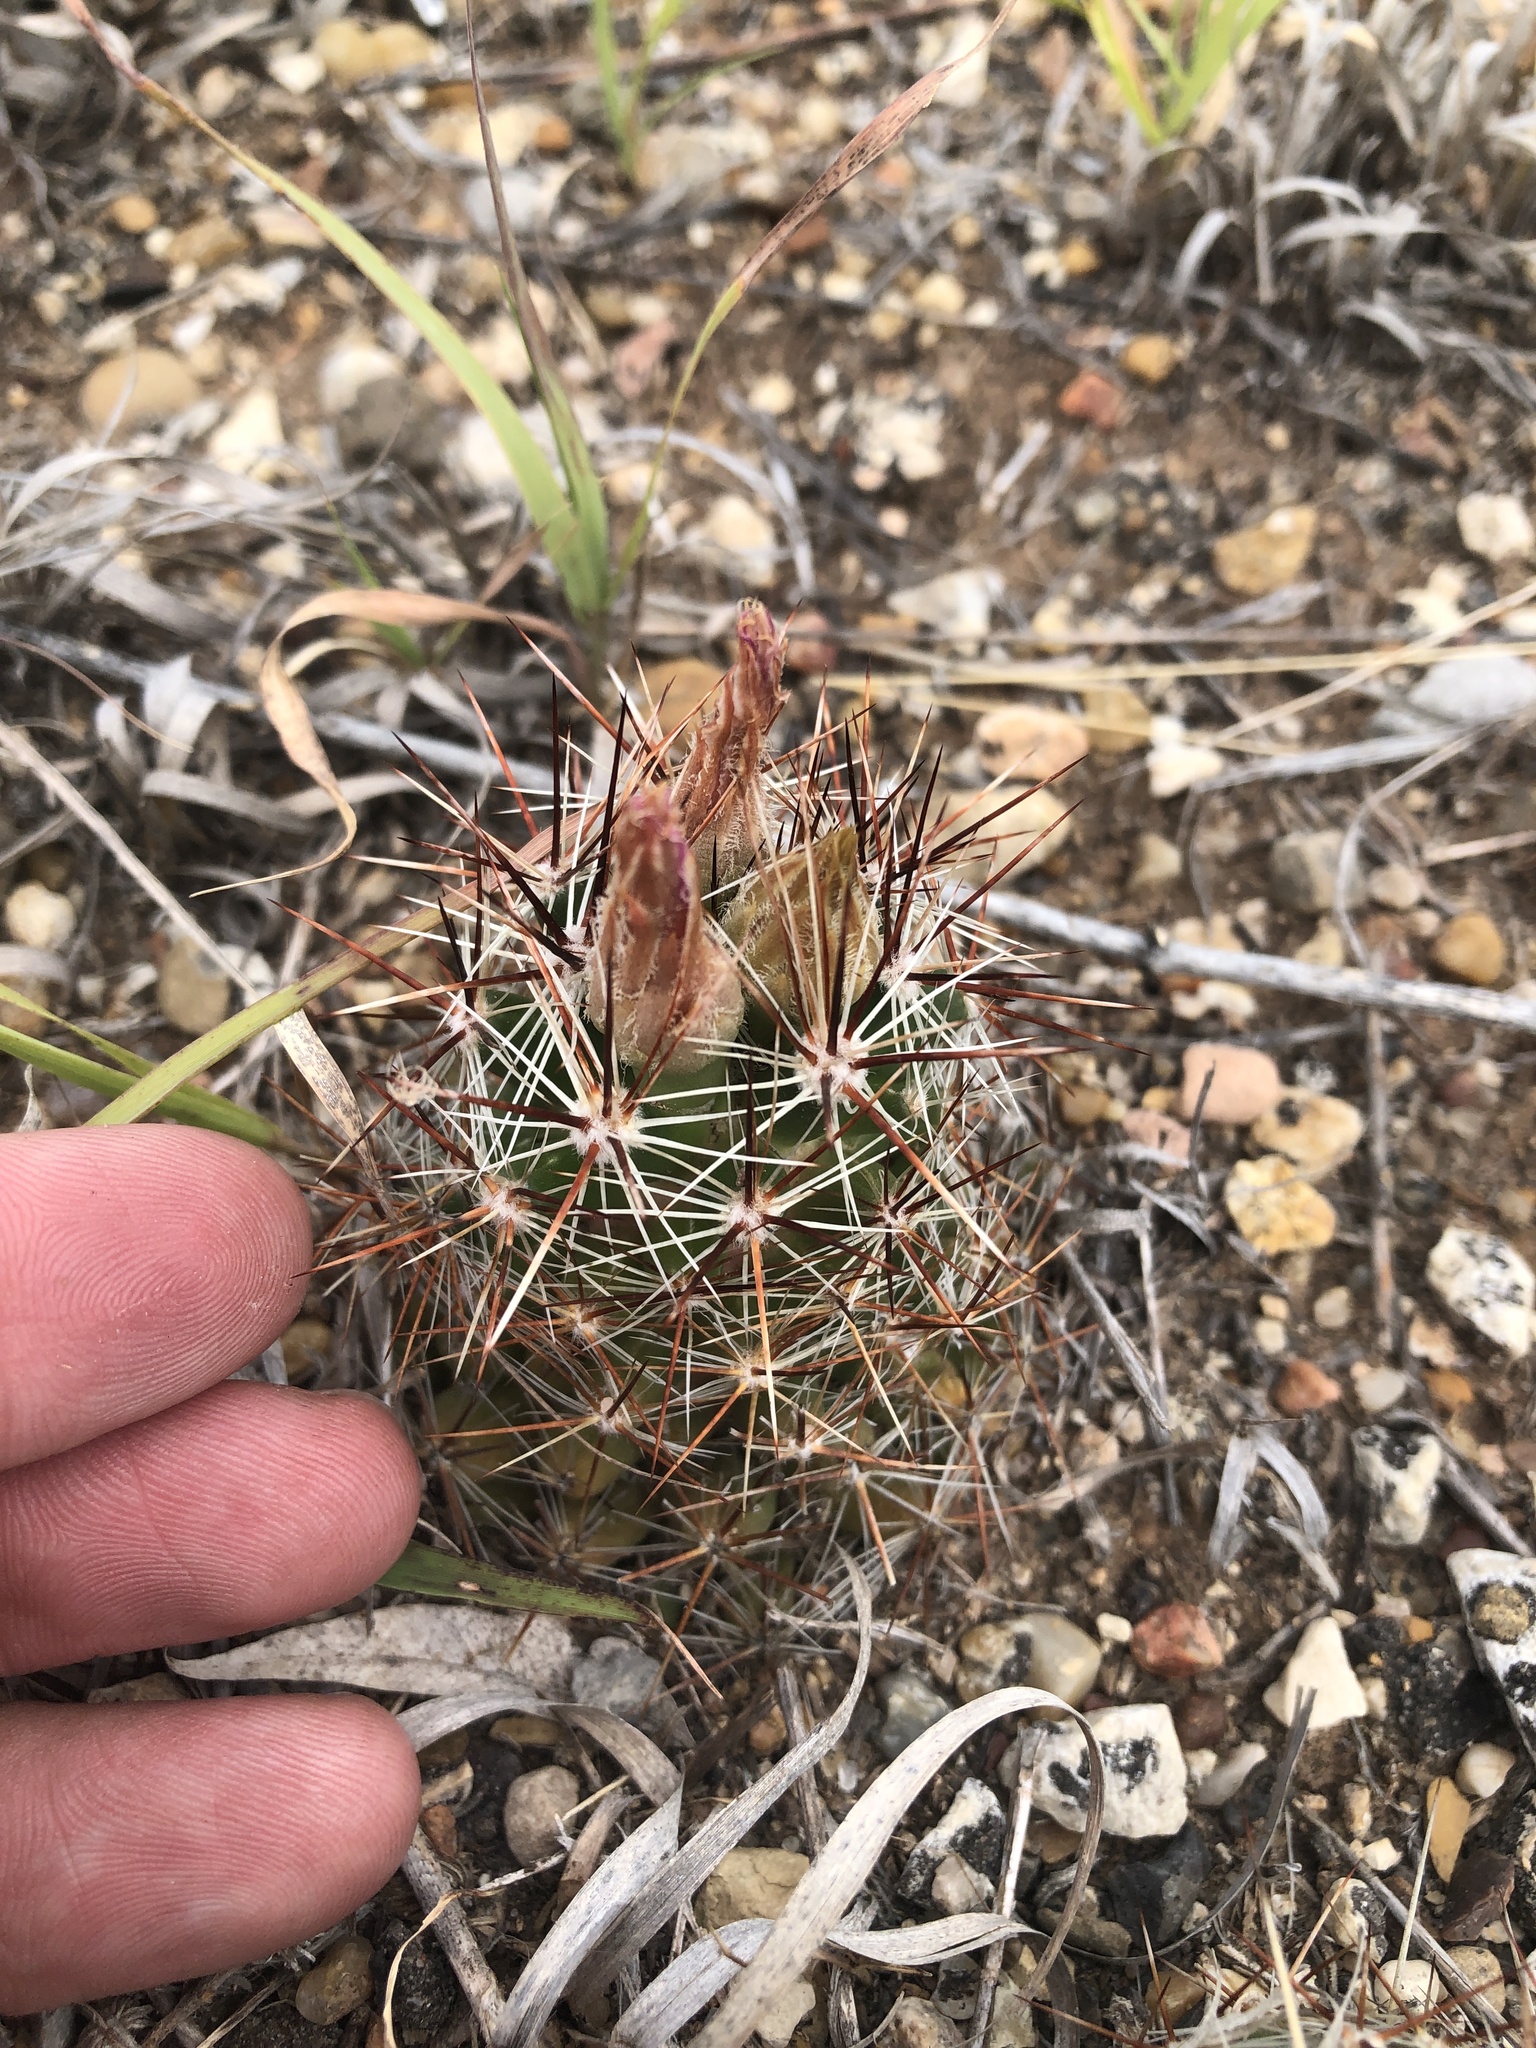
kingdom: Plantae
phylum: Tracheophyta
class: Magnoliopsida
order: Caryophyllales
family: Cactaceae
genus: Pelecyphora
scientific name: Pelecyphora vivipara
